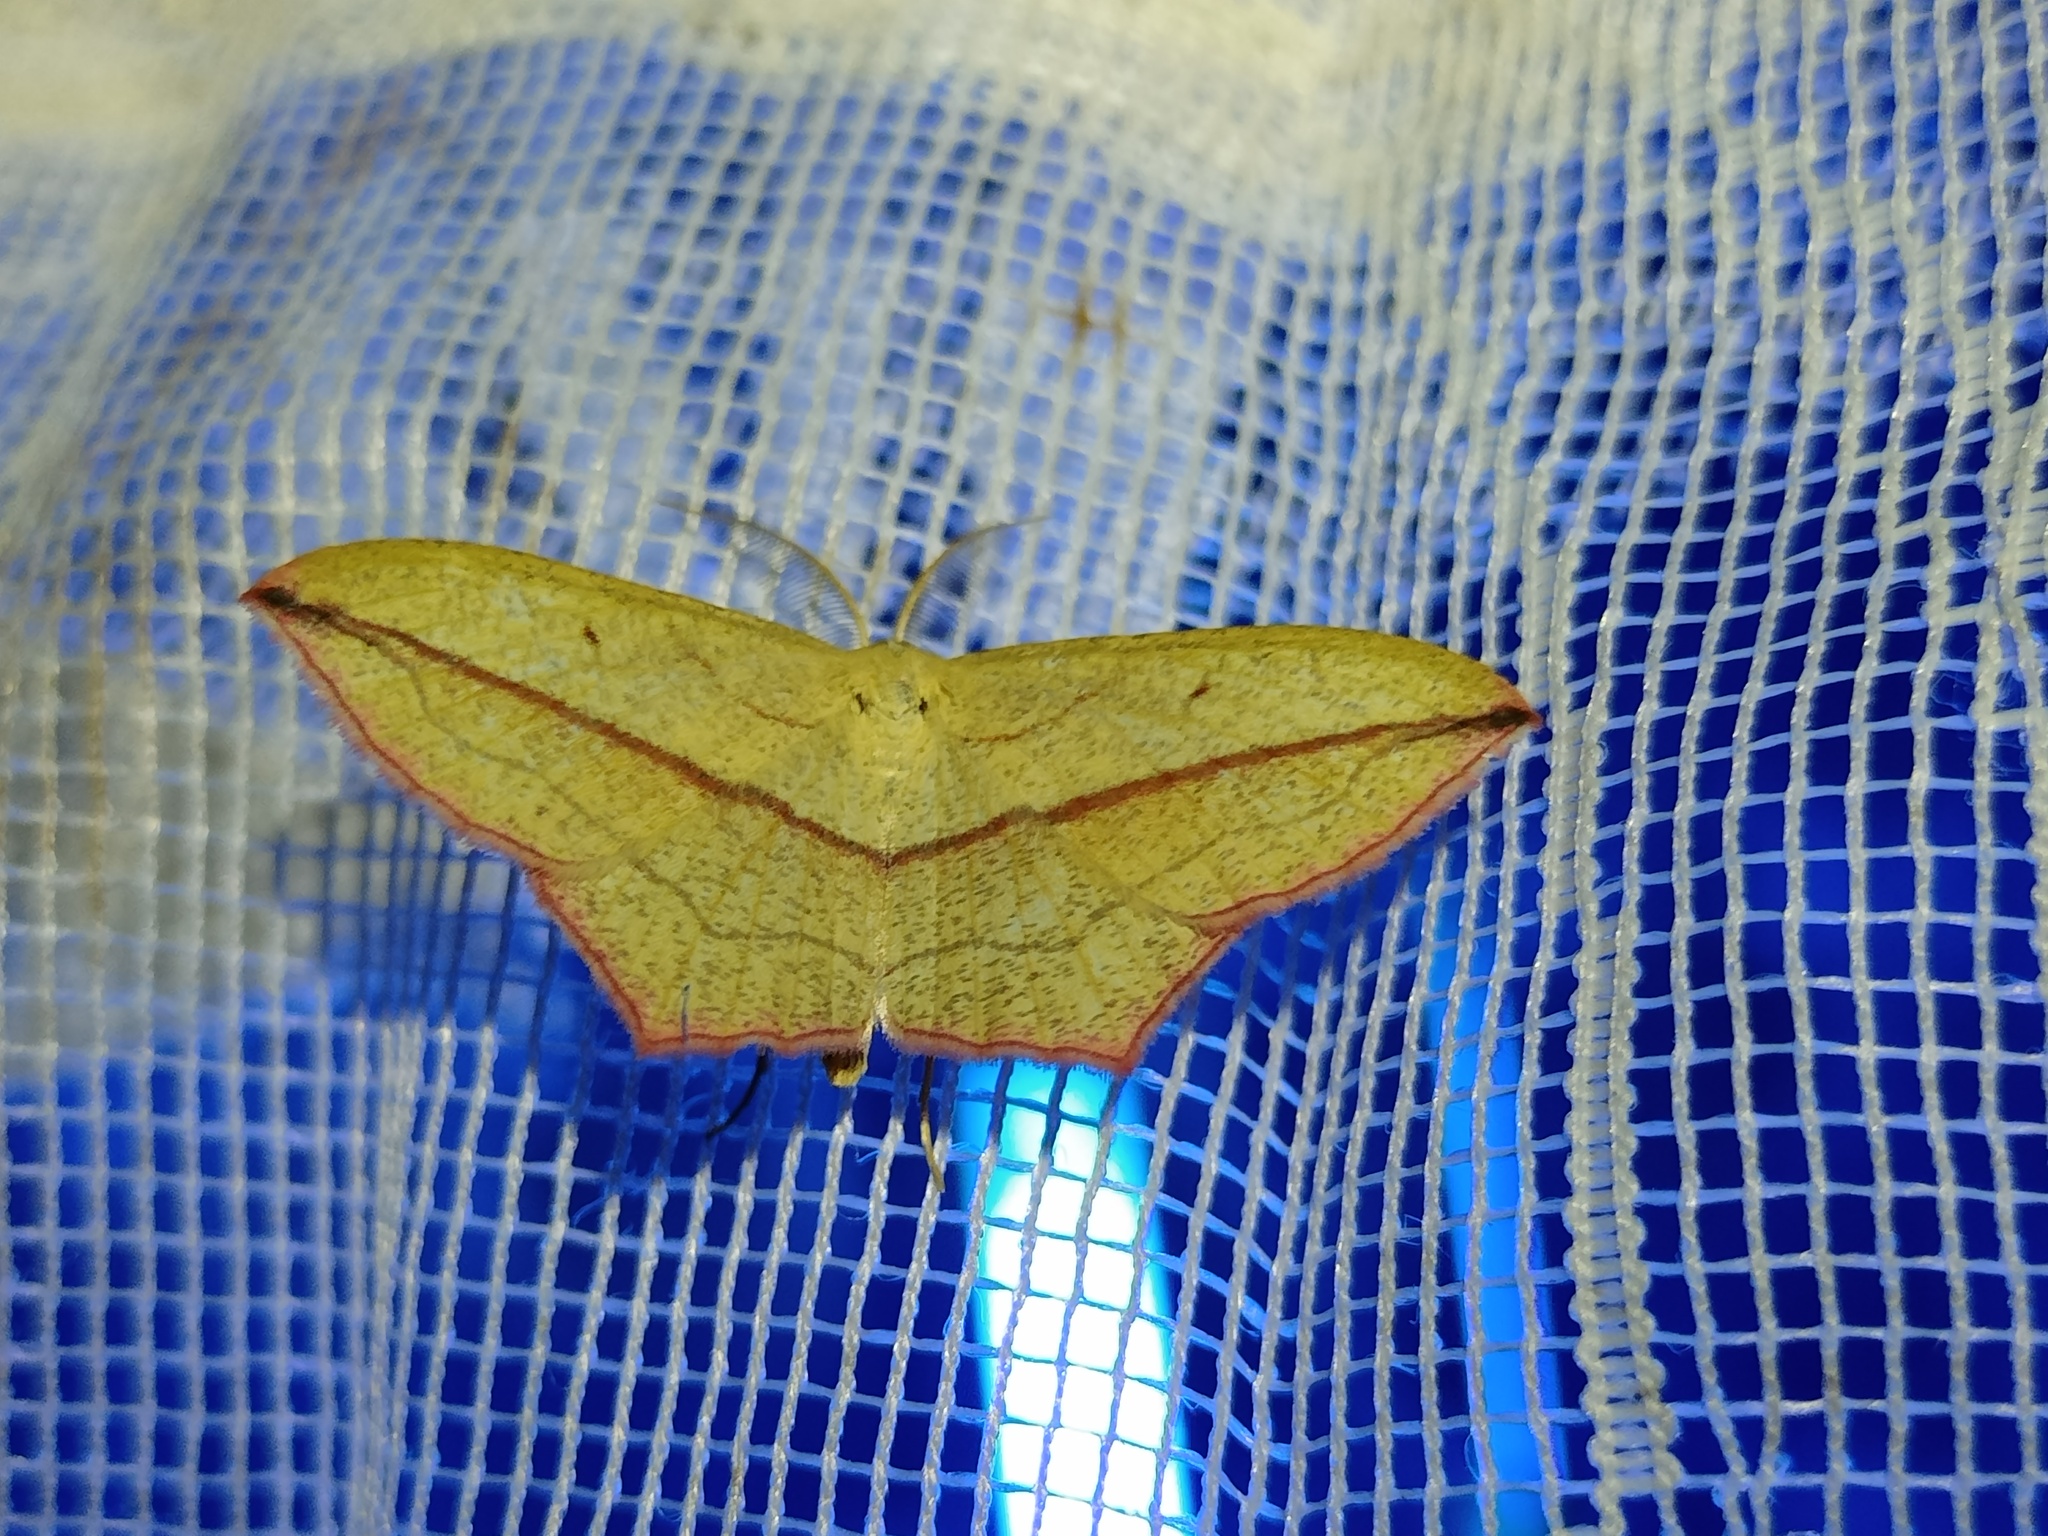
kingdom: Animalia
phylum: Arthropoda
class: Insecta
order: Lepidoptera
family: Geometridae
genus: Timandra
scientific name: Timandra comae
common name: Blood-vein
